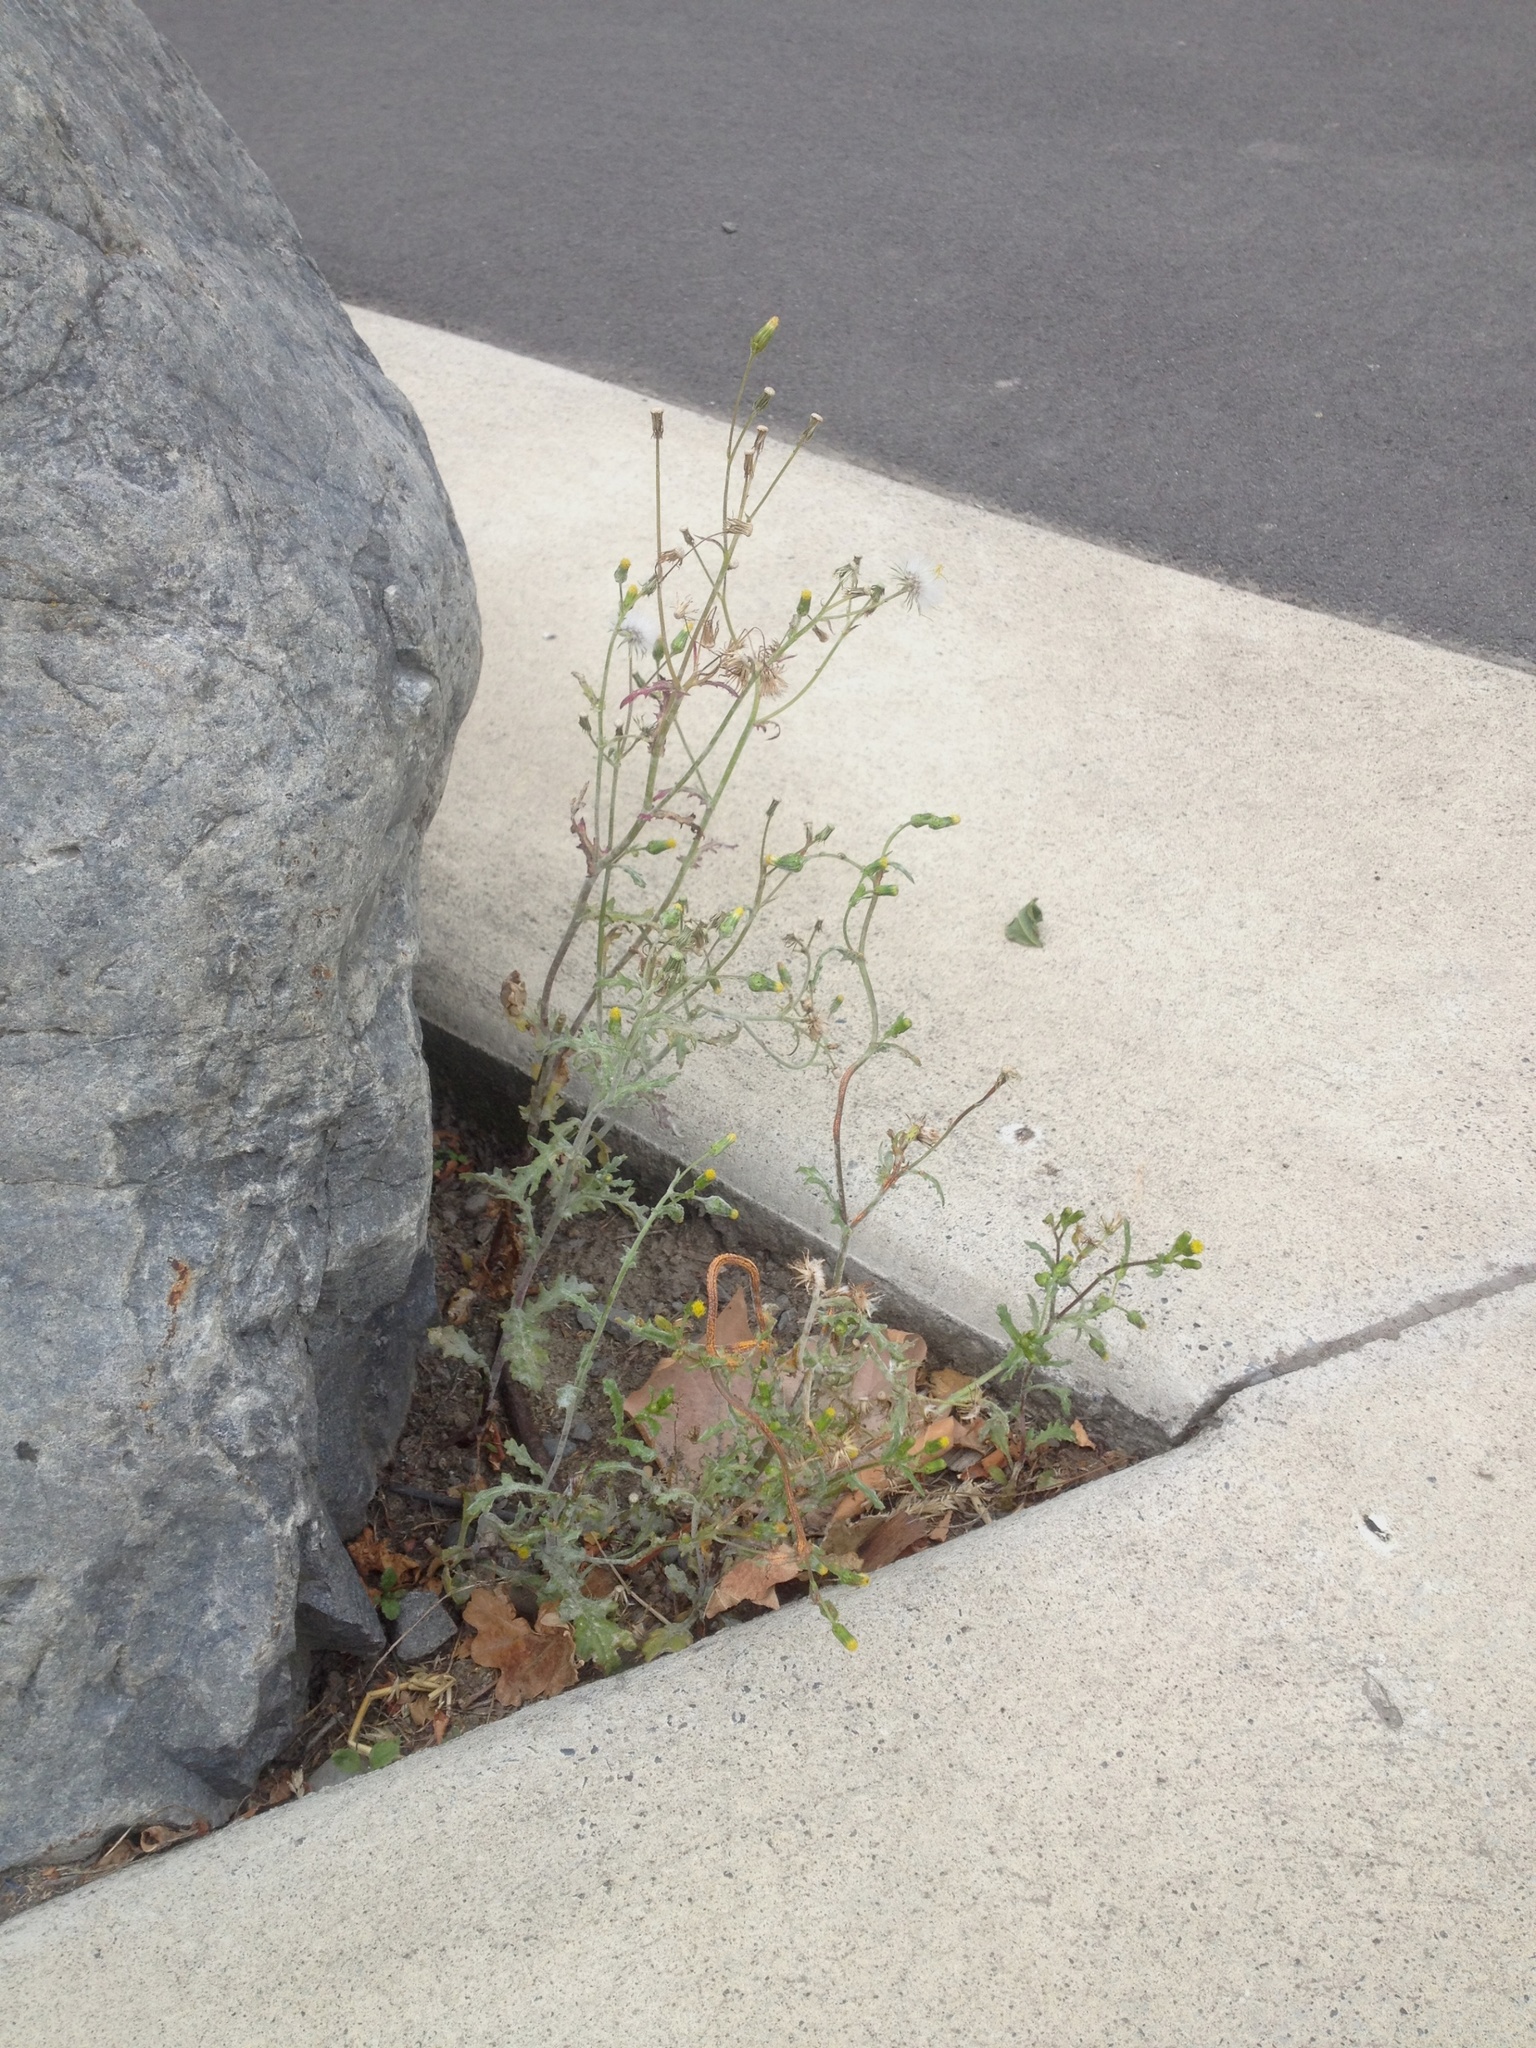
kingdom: Fungi
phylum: Ascomycota
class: Leotiomycetes
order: Helotiales
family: Erysiphaceae
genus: Golovinomyces
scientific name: Golovinomyces fischeri
